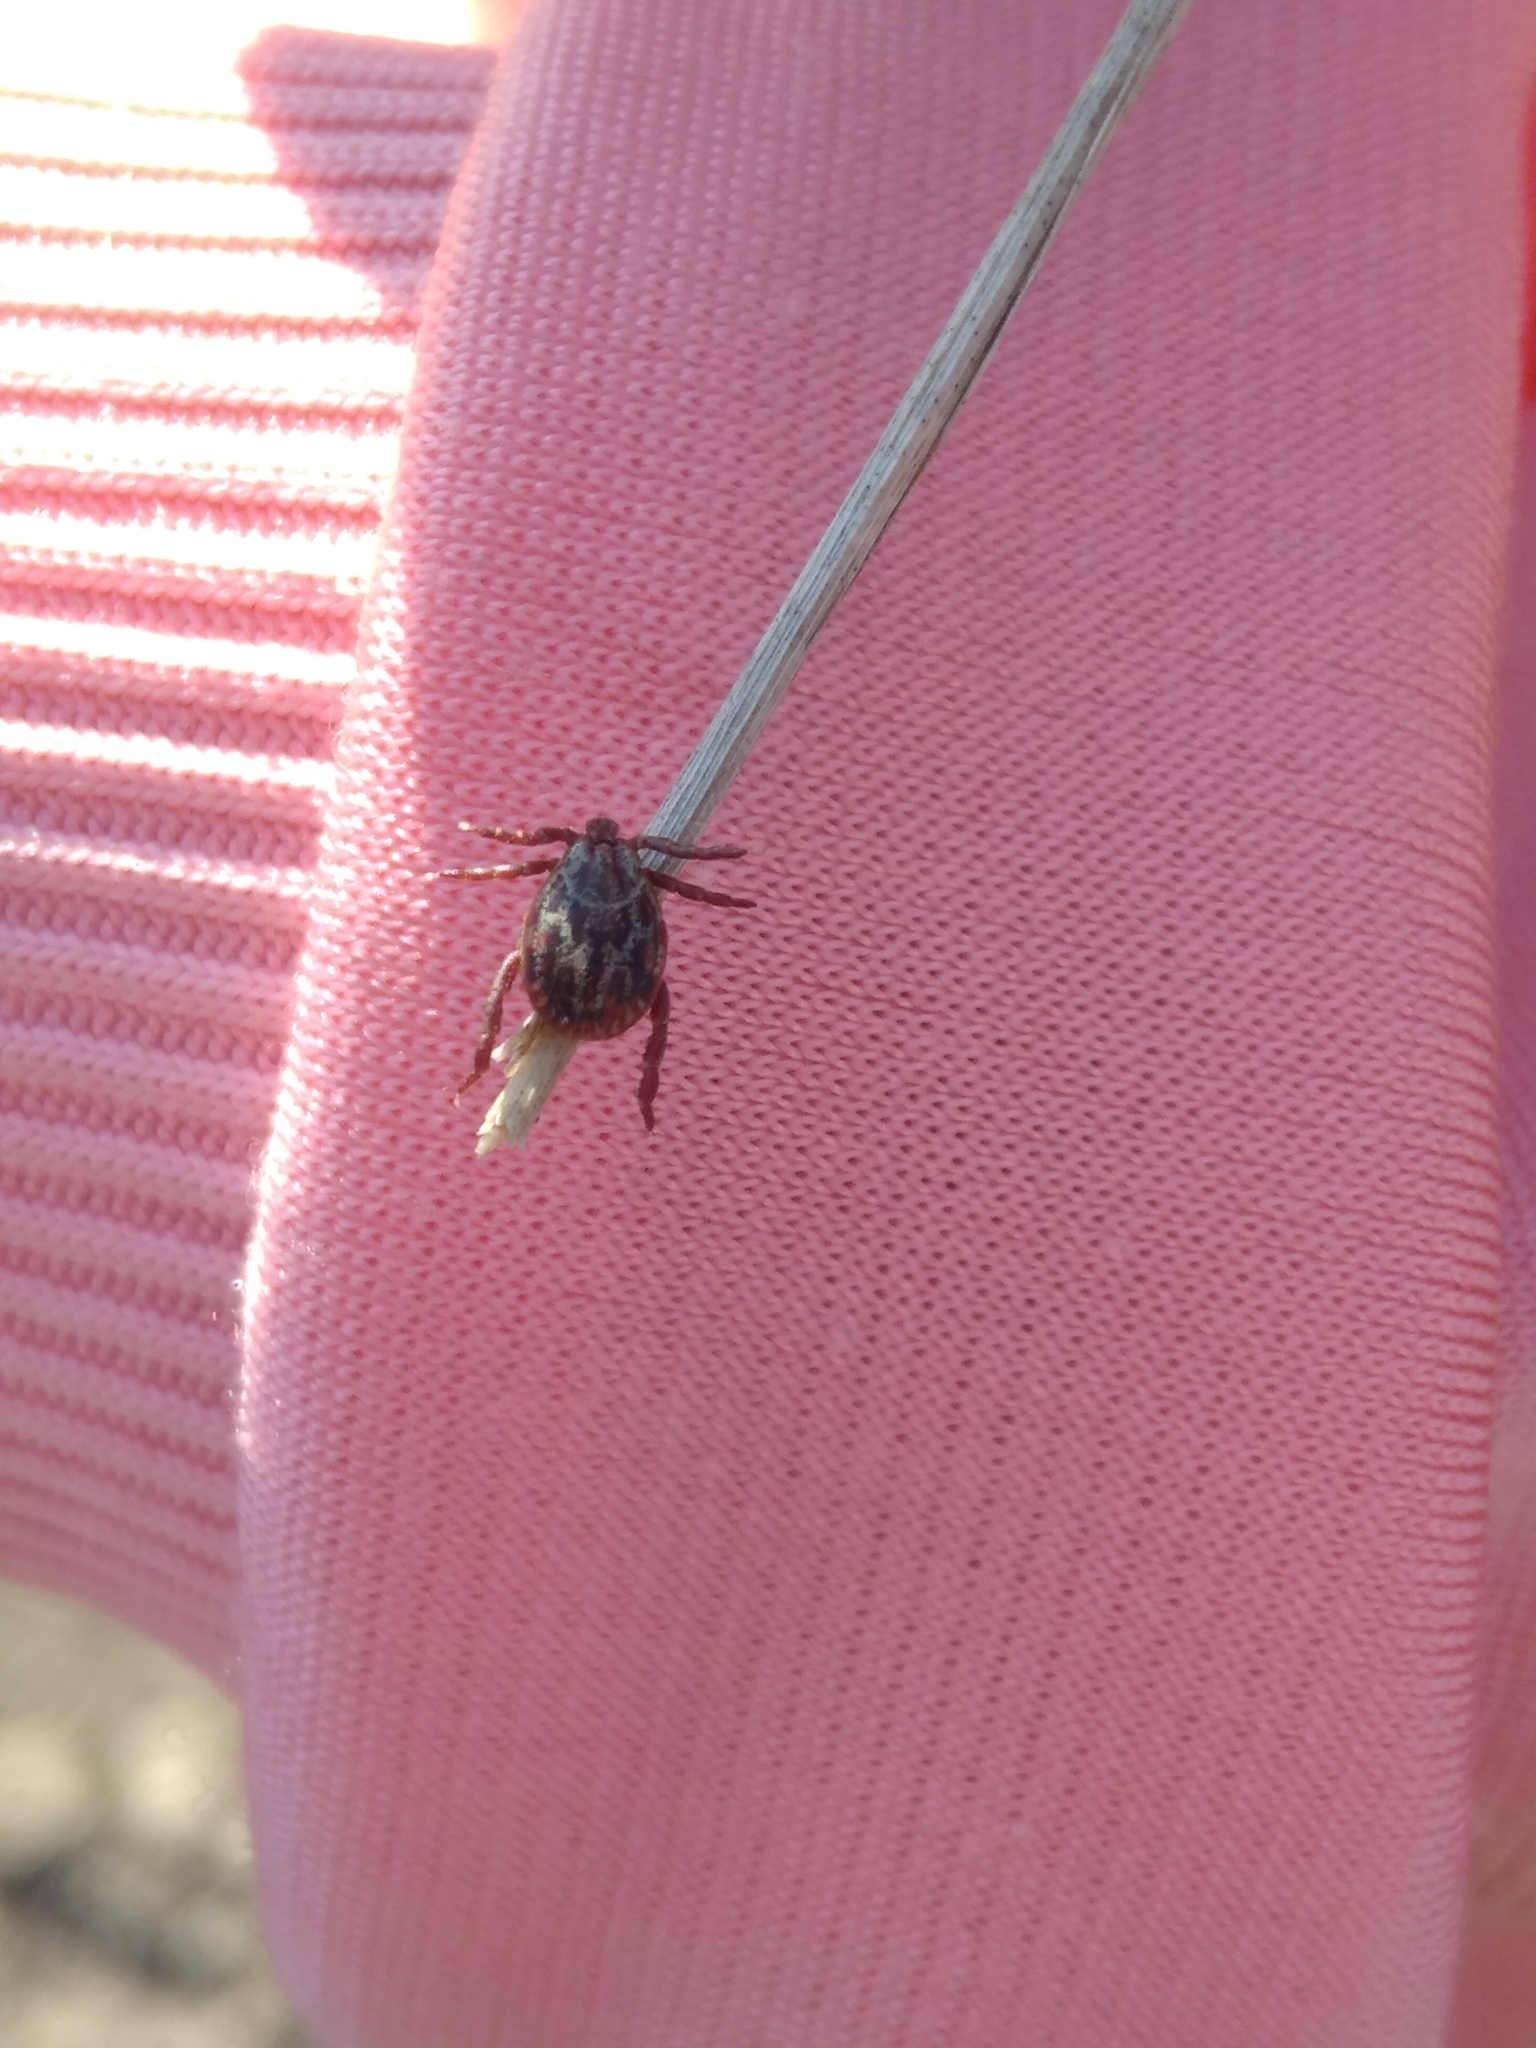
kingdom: Animalia
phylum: Arthropoda
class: Arachnida
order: Ixodida
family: Ixodidae
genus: Dermacentor
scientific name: Dermacentor reticulatus
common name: Ornate cow tick
